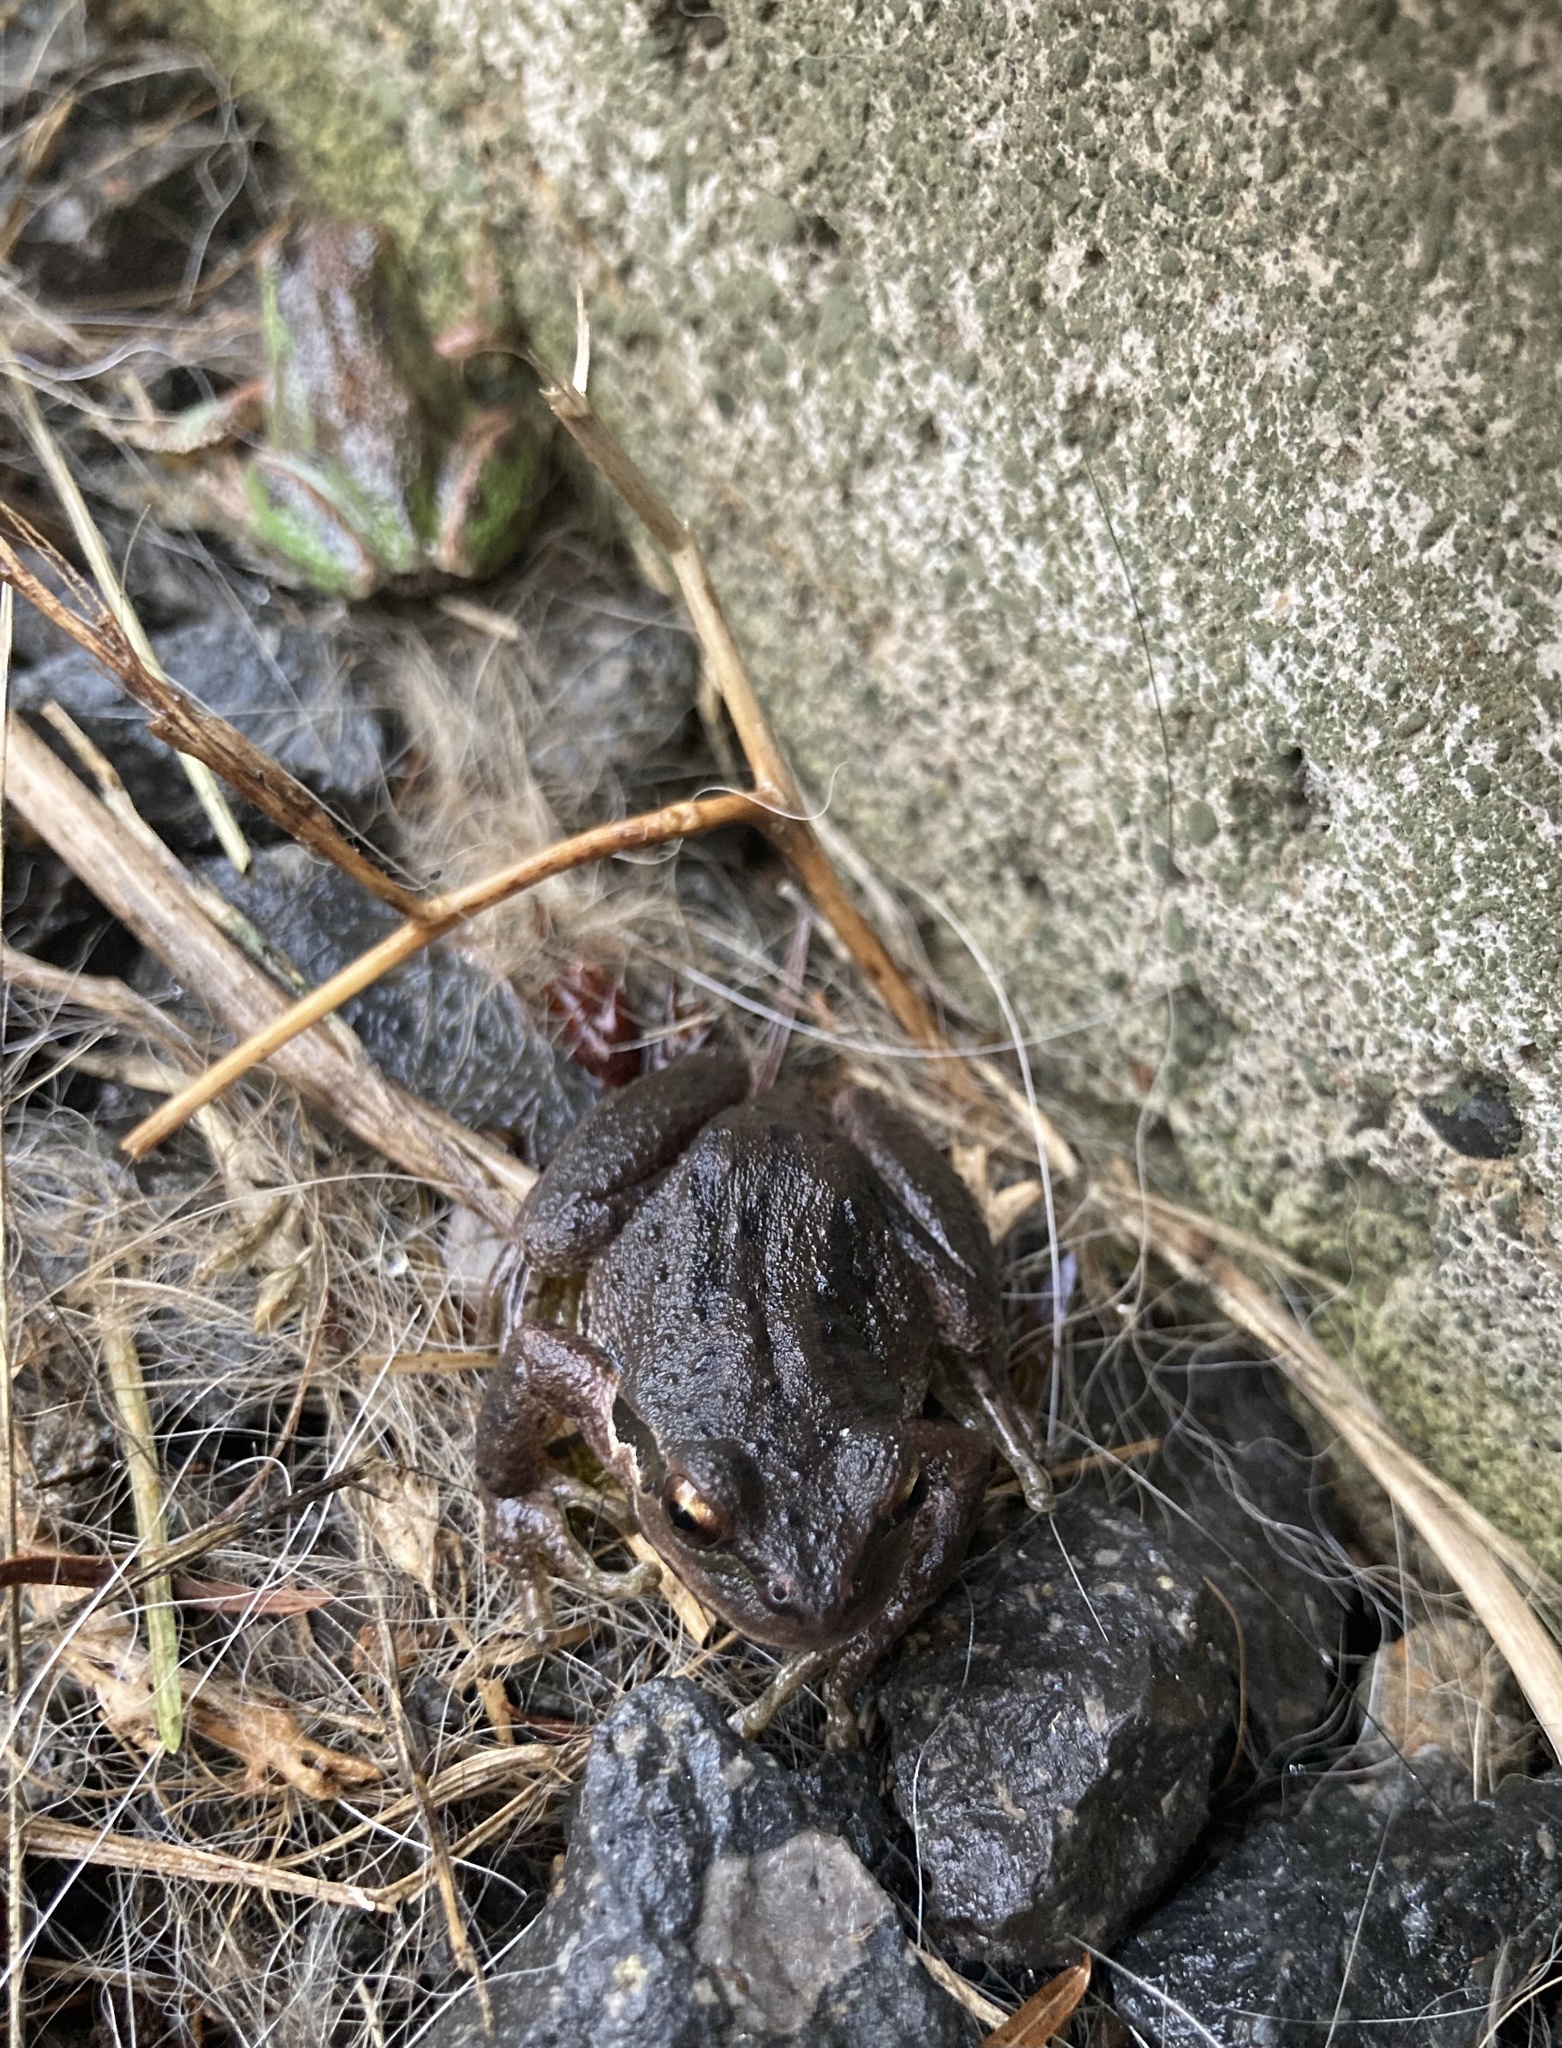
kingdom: Animalia
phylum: Chordata
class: Amphibia
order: Anura
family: Hylidae
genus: Pseudacris
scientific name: Pseudacris regilla
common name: Pacific chorus frog
